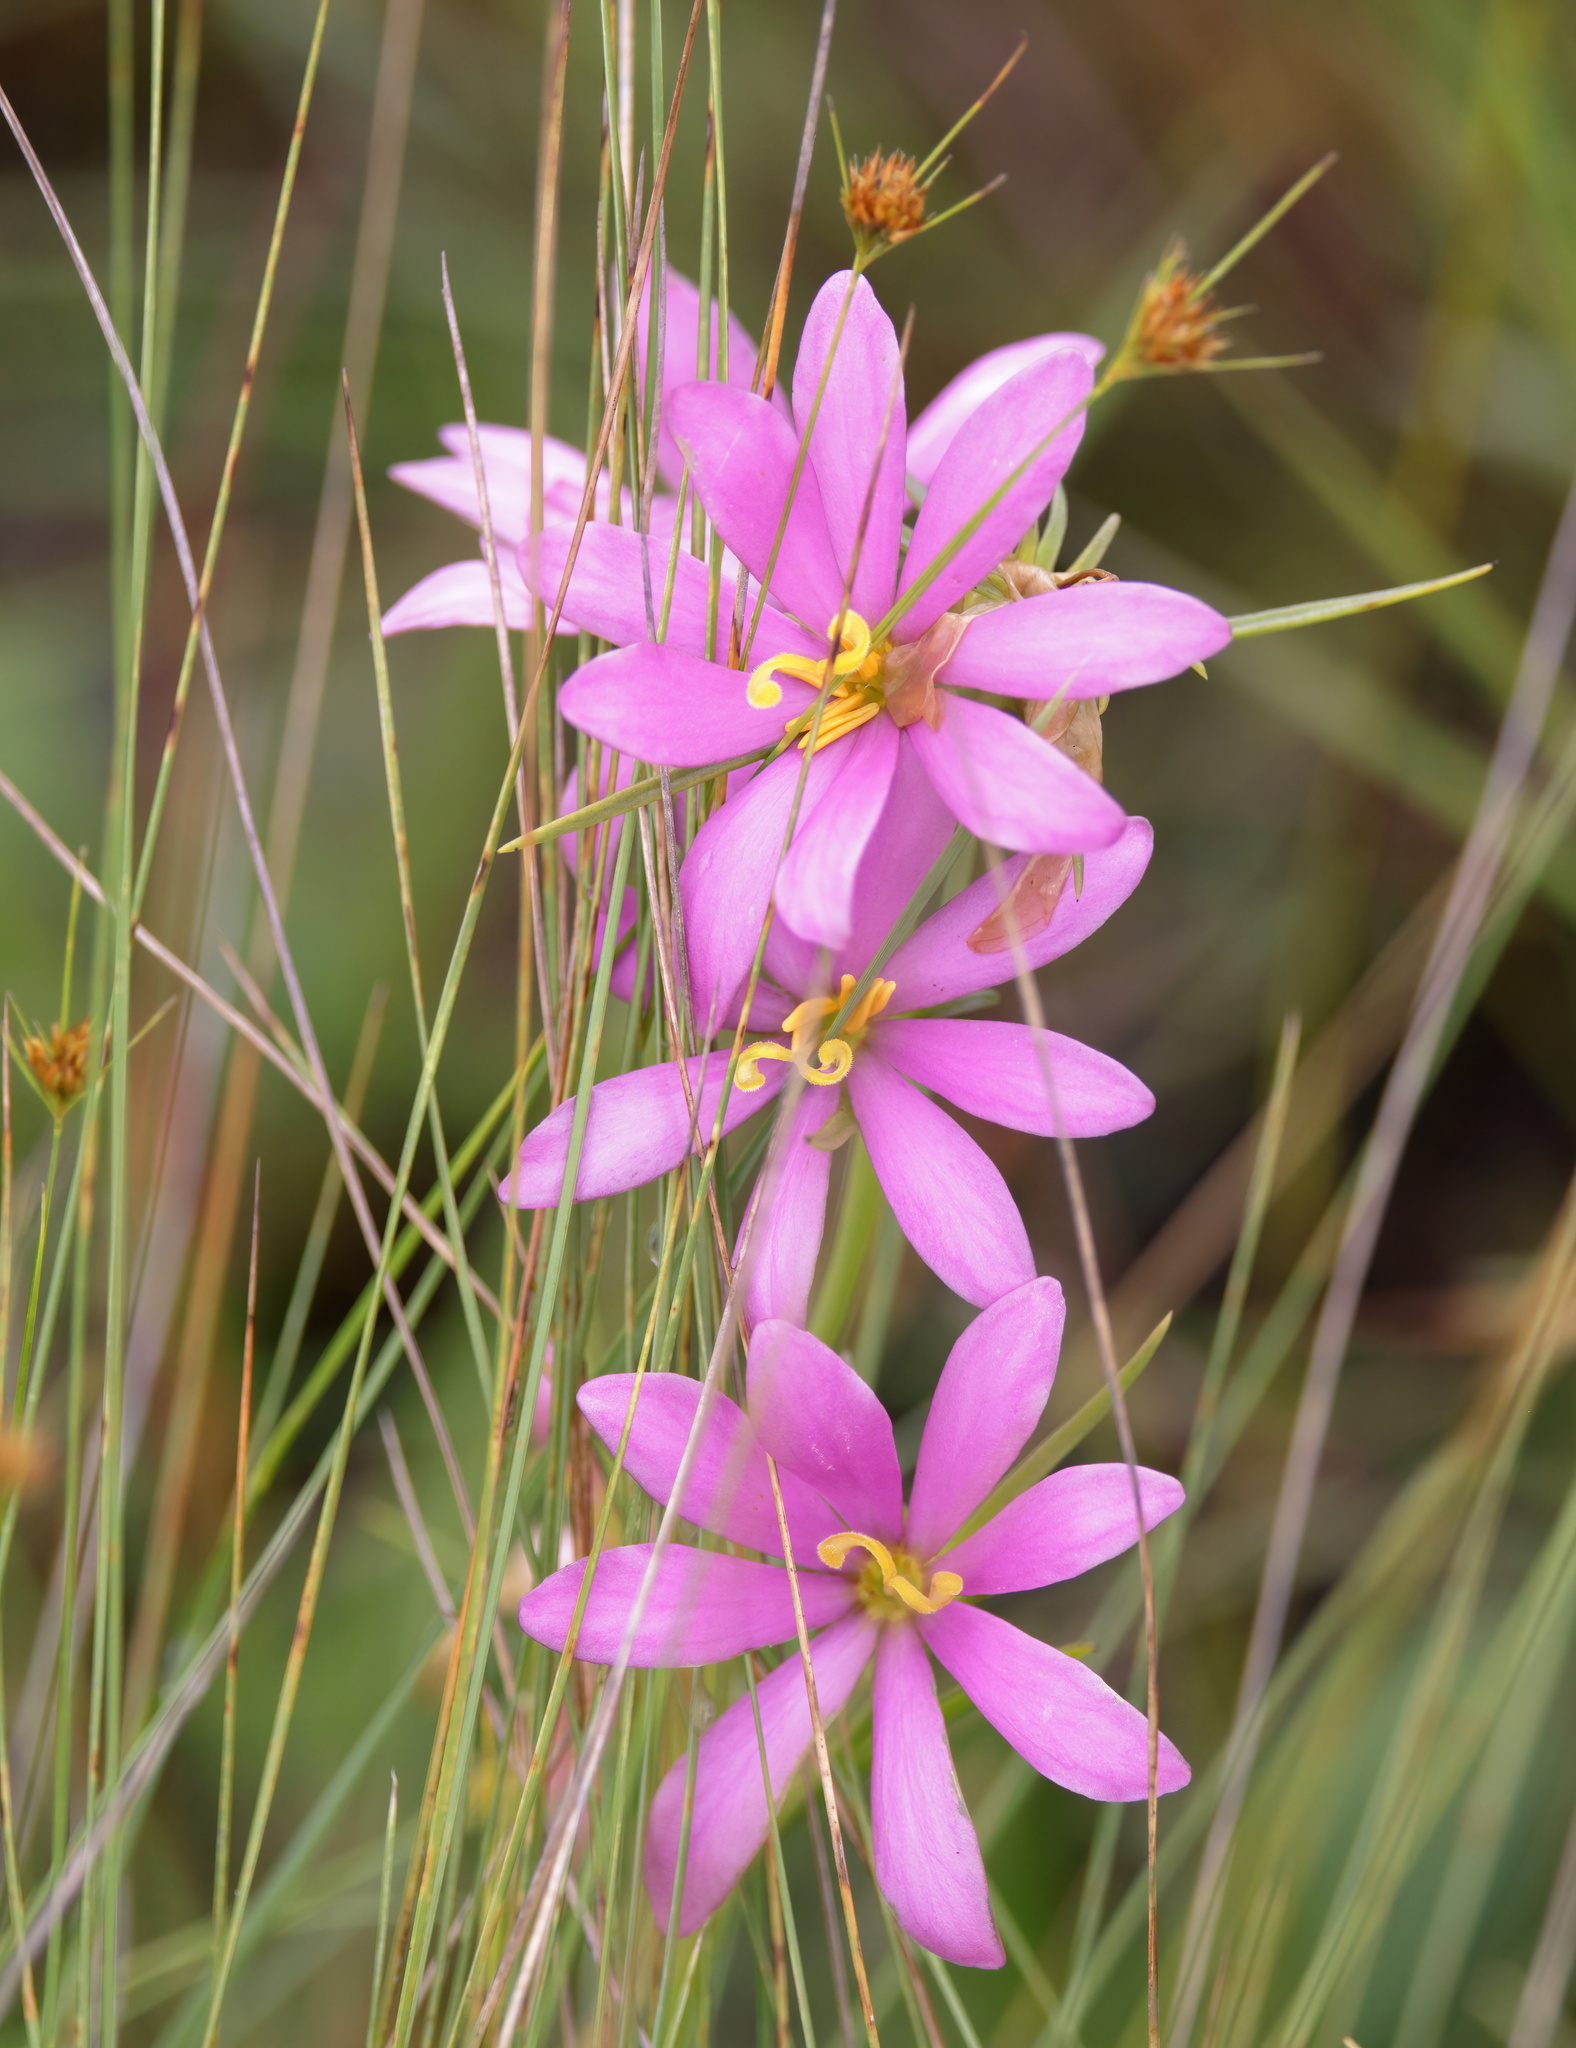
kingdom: Plantae
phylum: Tracheophyta
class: Magnoliopsida
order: Gentianales
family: Gentianaceae
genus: Sabatia
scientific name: Sabatia gentianoides
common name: Pinewoods rose-gentian
